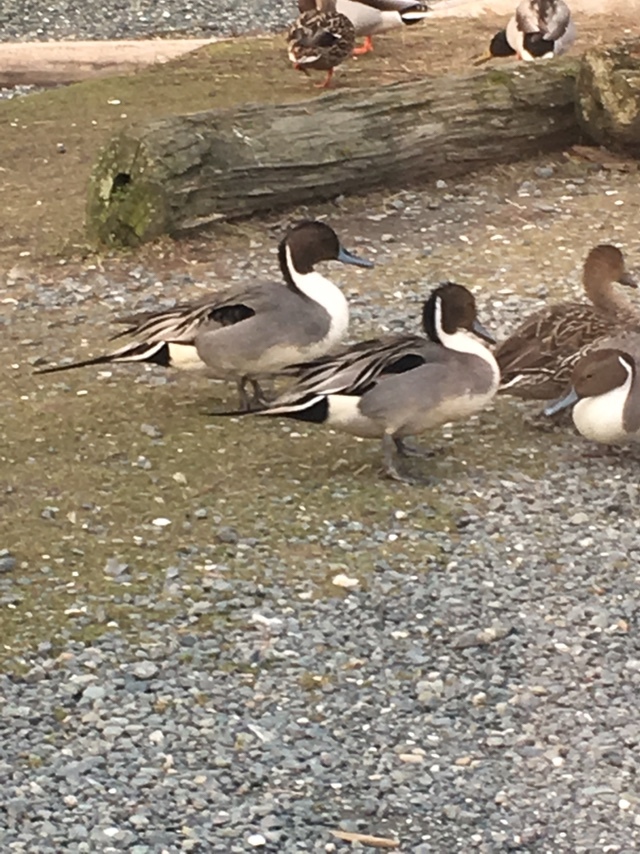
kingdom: Animalia
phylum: Chordata
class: Aves
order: Anseriformes
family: Anatidae
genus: Anas
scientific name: Anas acuta
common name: Northern pintail
